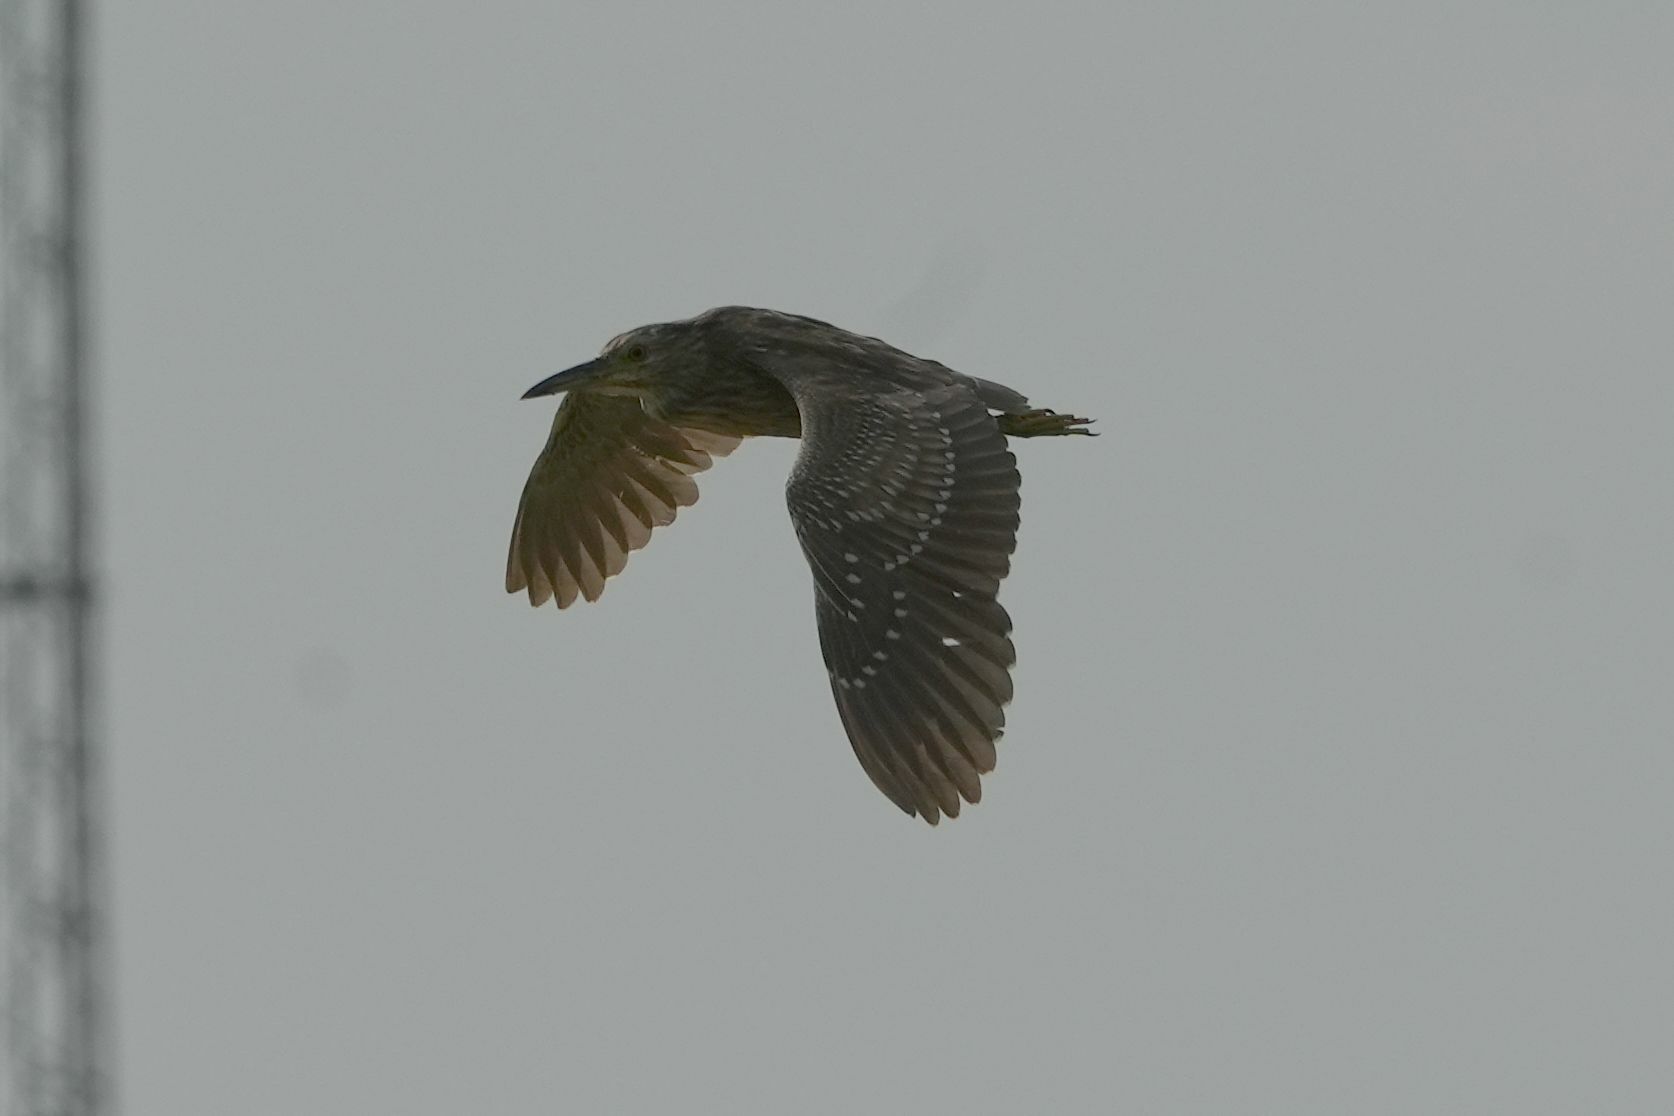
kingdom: Animalia
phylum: Chordata
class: Aves
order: Pelecaniformes
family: Ardeidae
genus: Nycticorax
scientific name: Nycticorax nycticorax
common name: Black-crowned night heron
